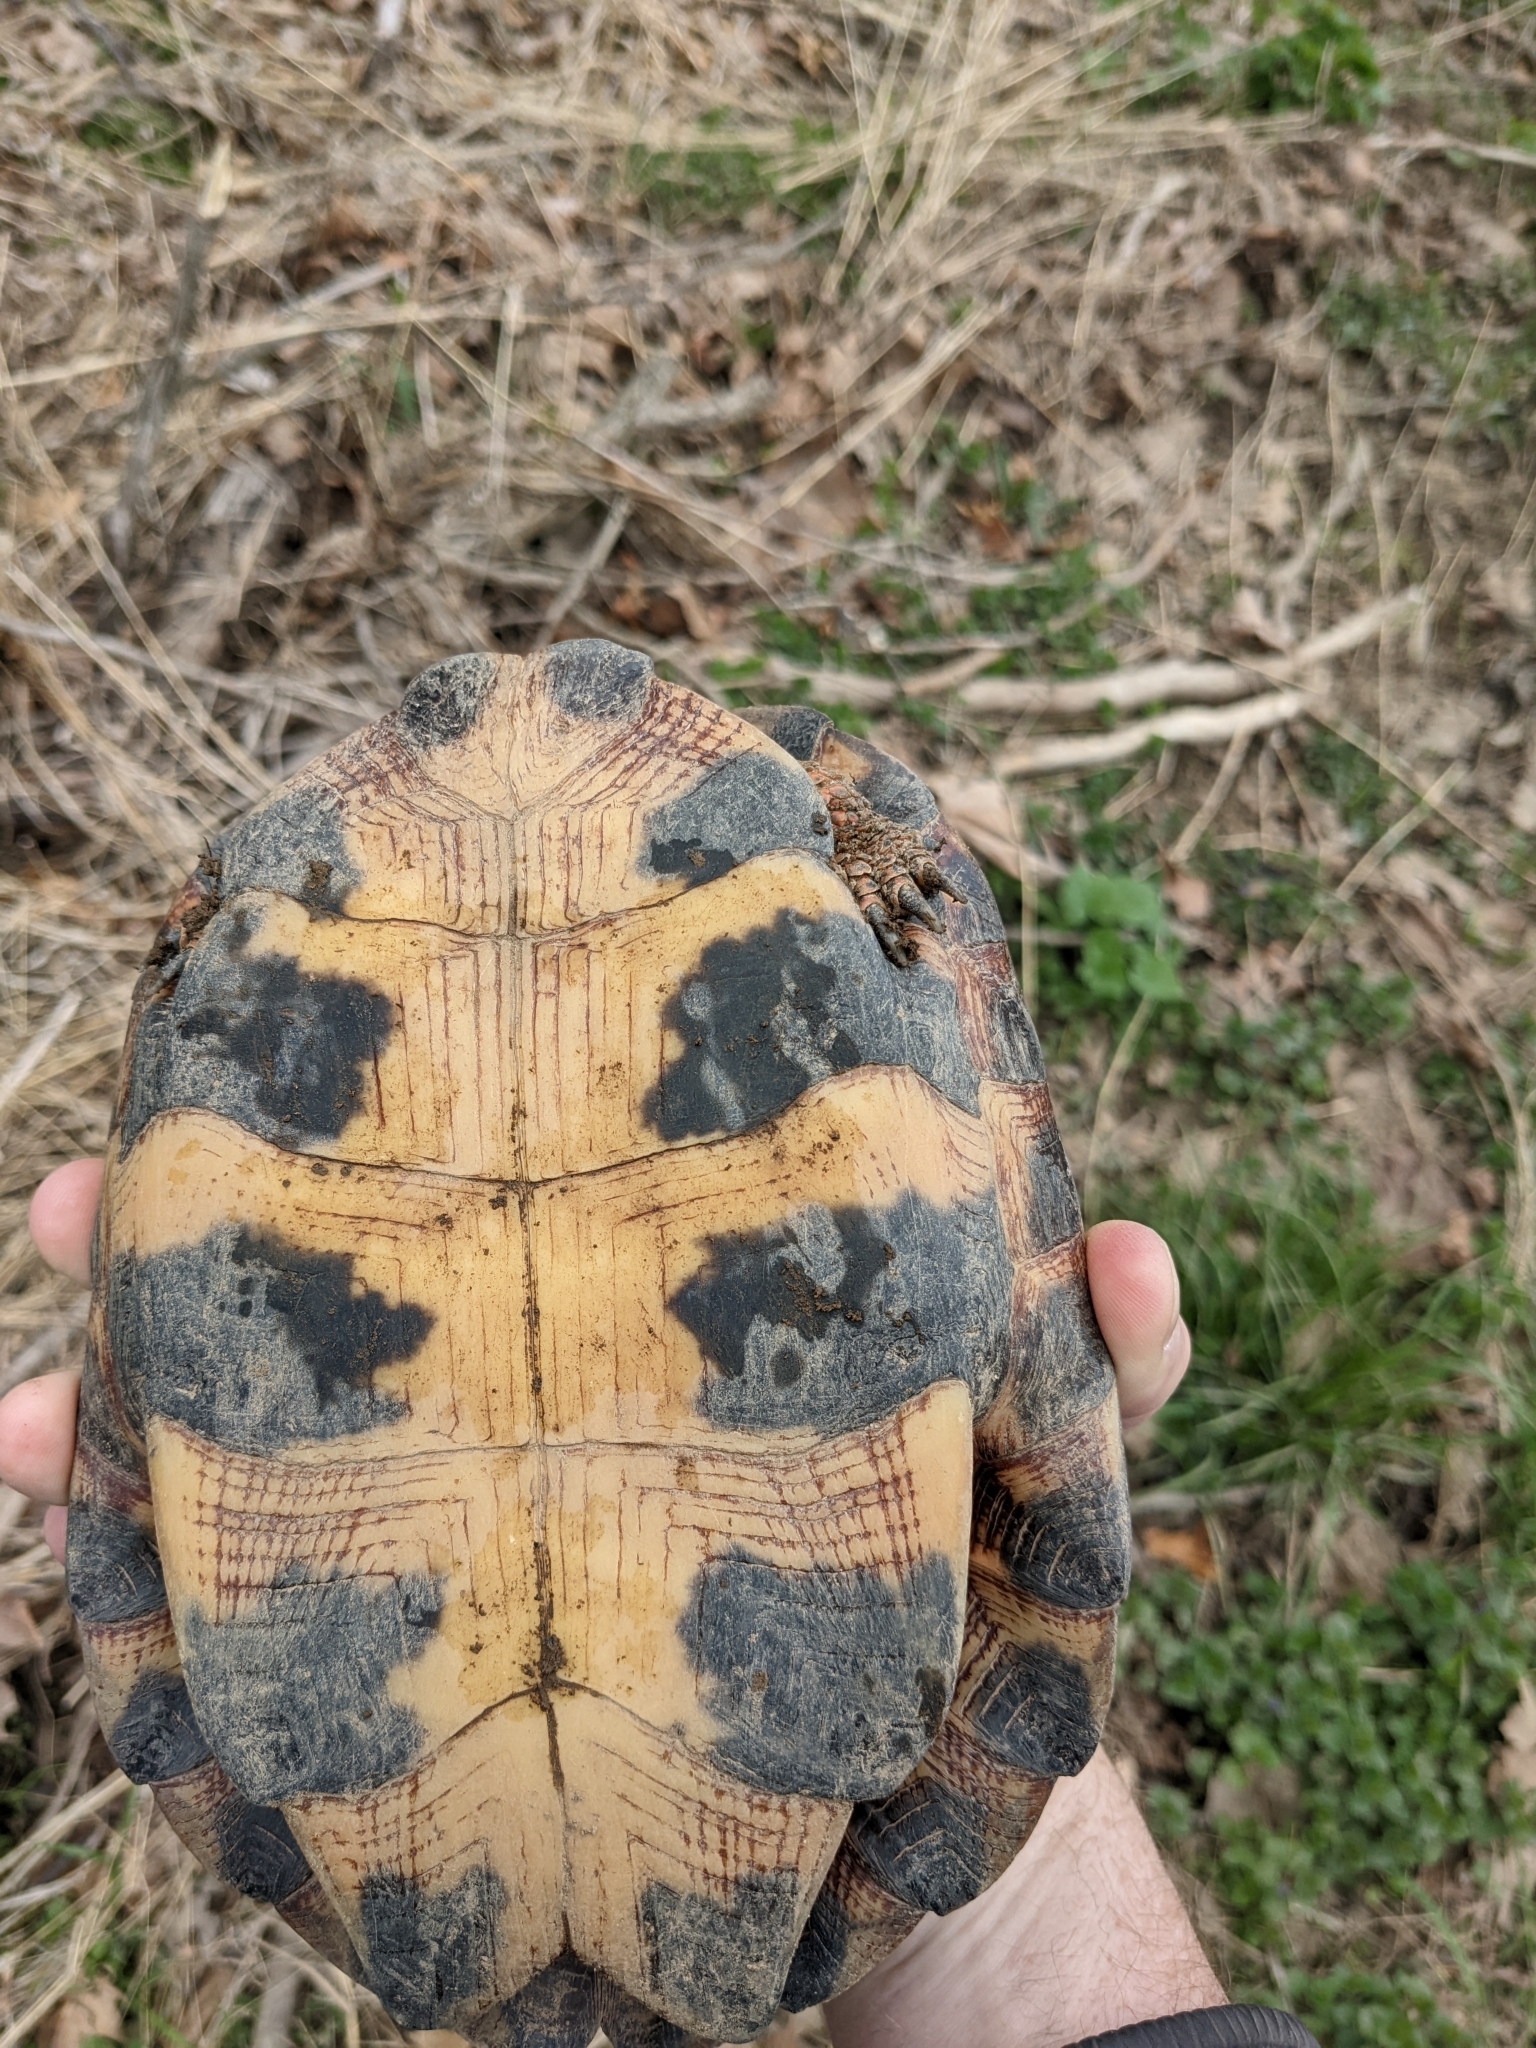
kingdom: Animalia
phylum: Chordata
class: Testudines
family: Emydidae
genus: Glyptemys
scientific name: Glyptemys insculpta
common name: Wood turtle
